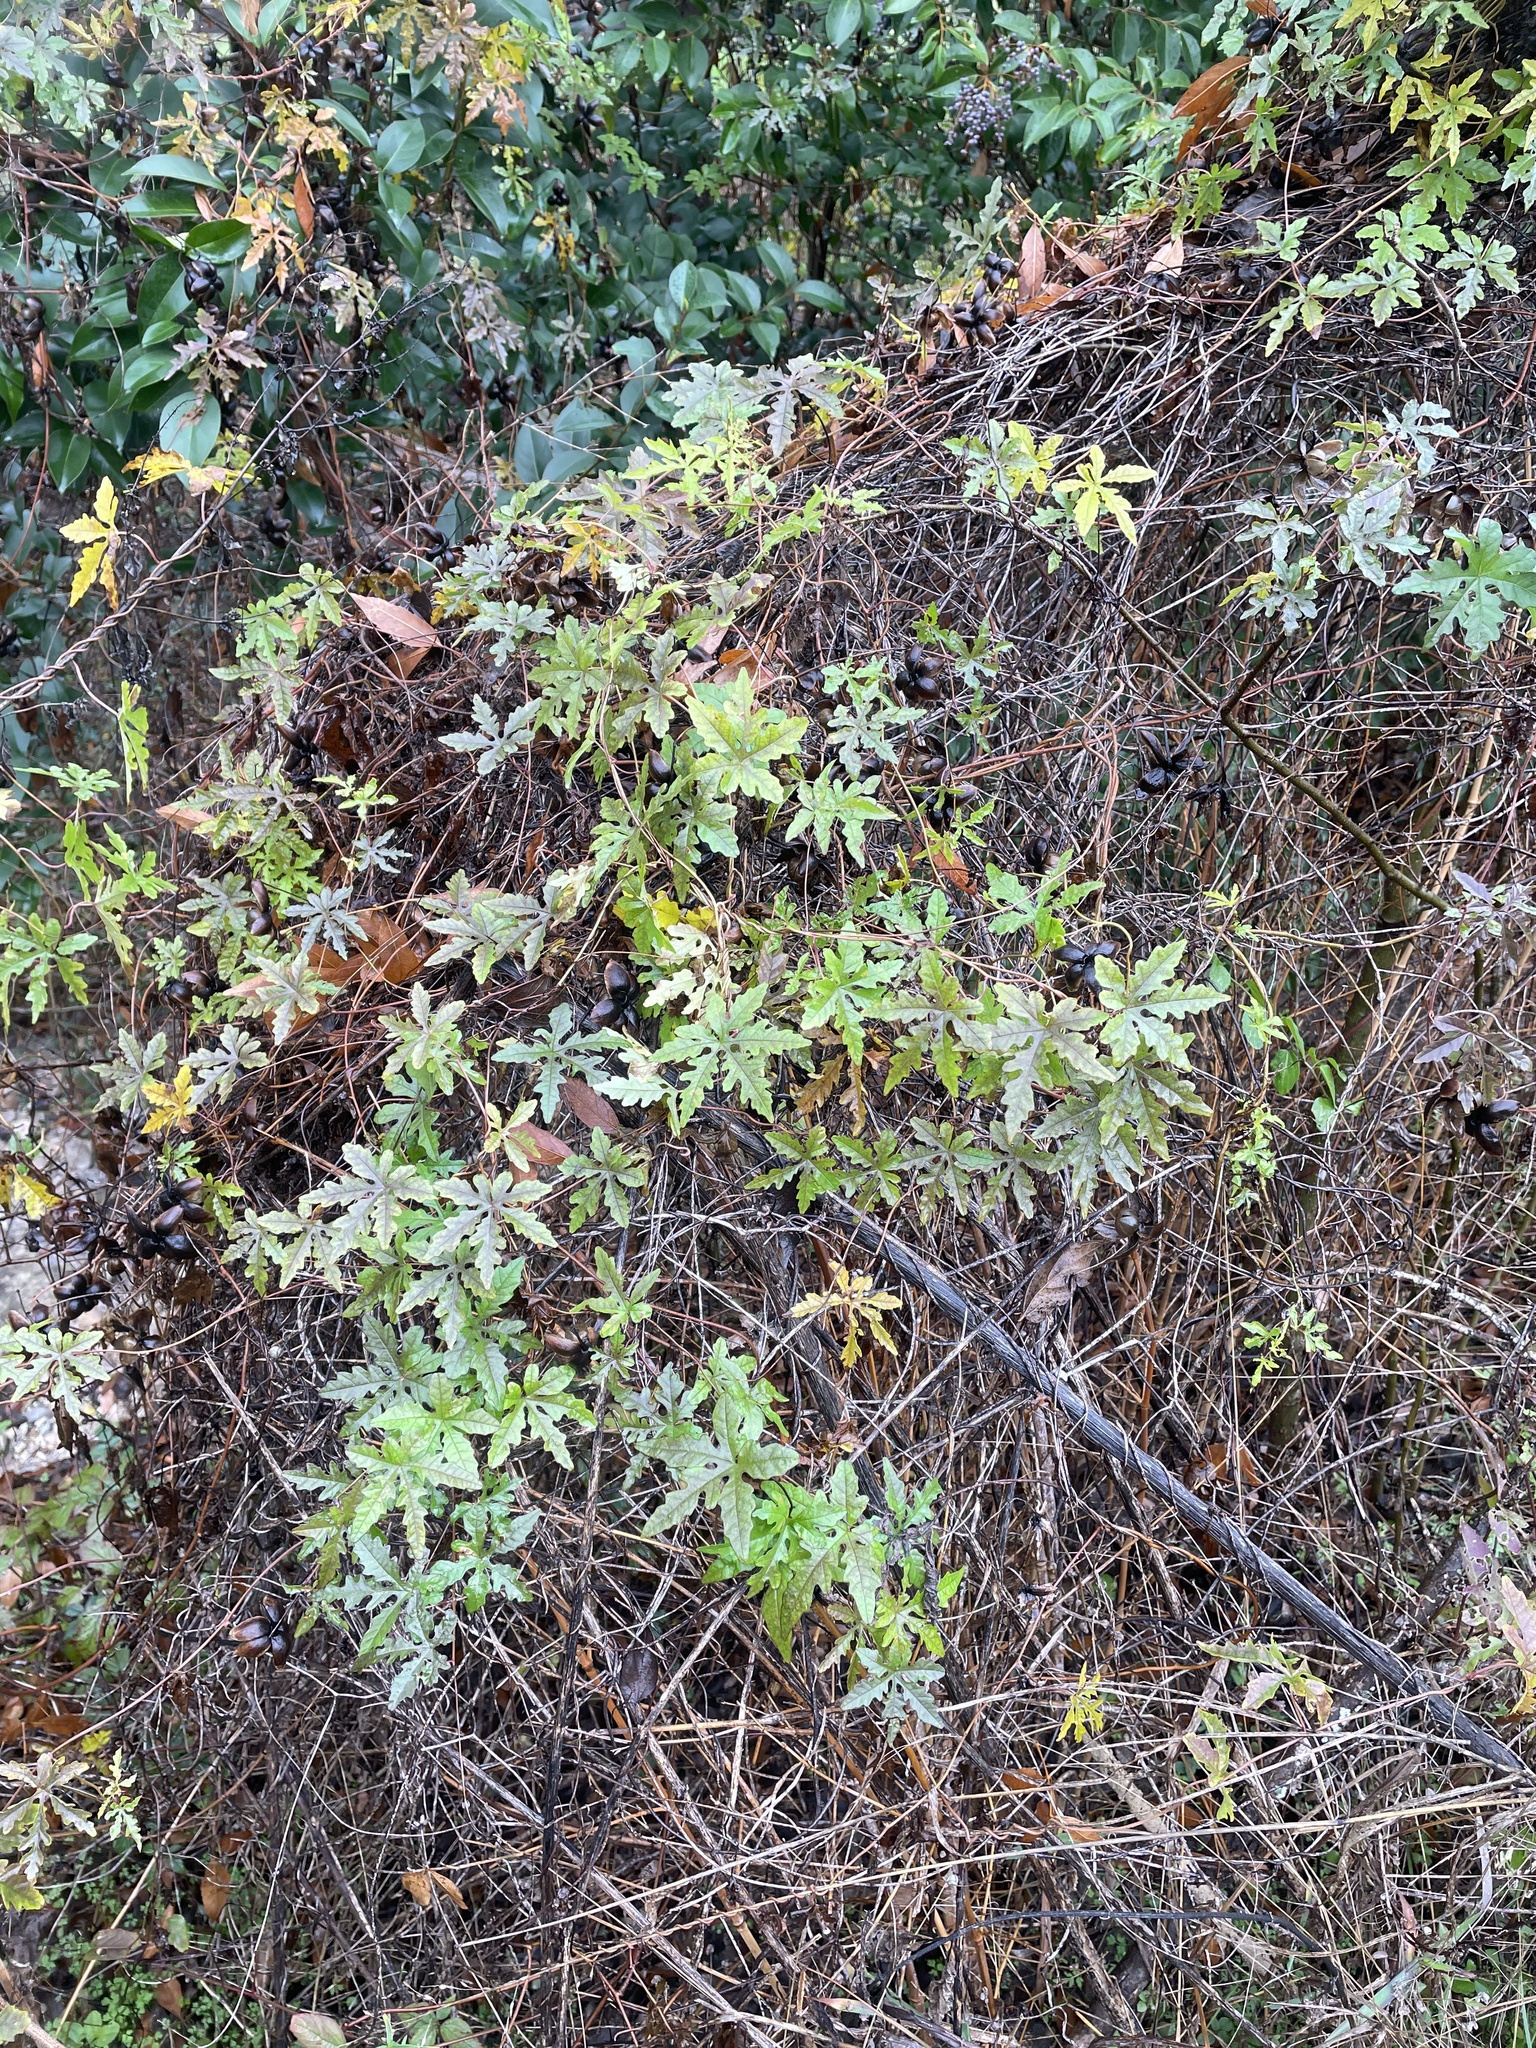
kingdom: Plantae
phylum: Tracheophyta
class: Magnoliopsida
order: Solanales
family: Convolvulaceae
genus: Distimake
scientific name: Distimake dissectus
